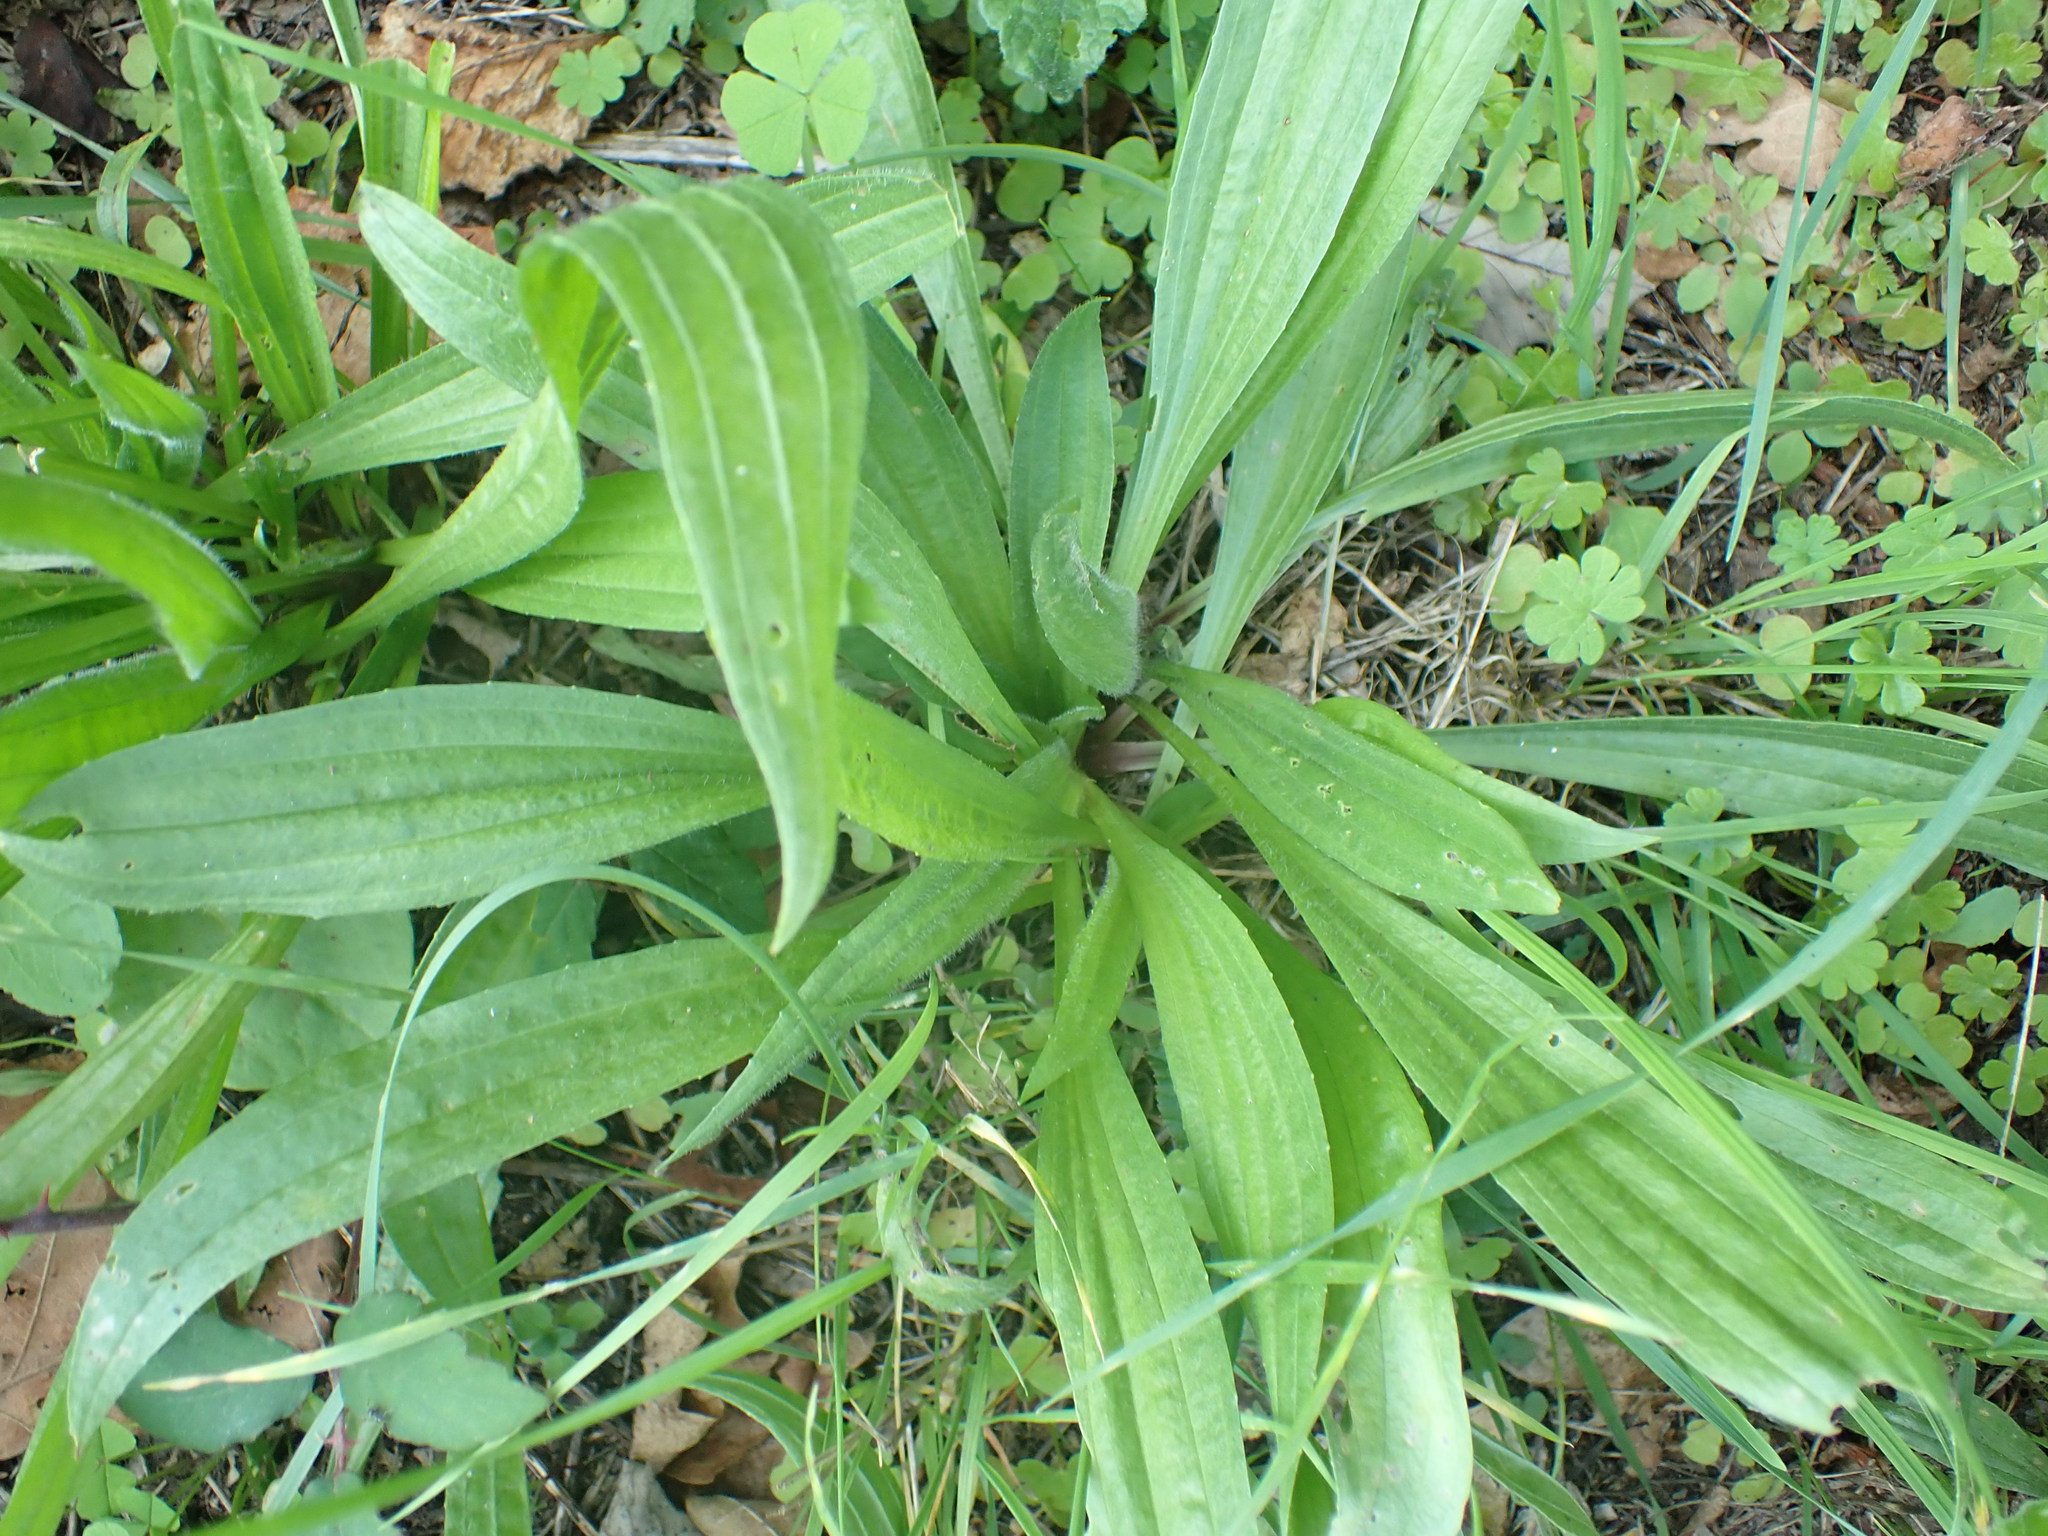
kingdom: Plantae
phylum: Tracheophyta
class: Magnoliopsida
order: Lamiales
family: Plantaginaceae
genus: Plantago
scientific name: Plantago lanceolata
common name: Ribwort plantain
